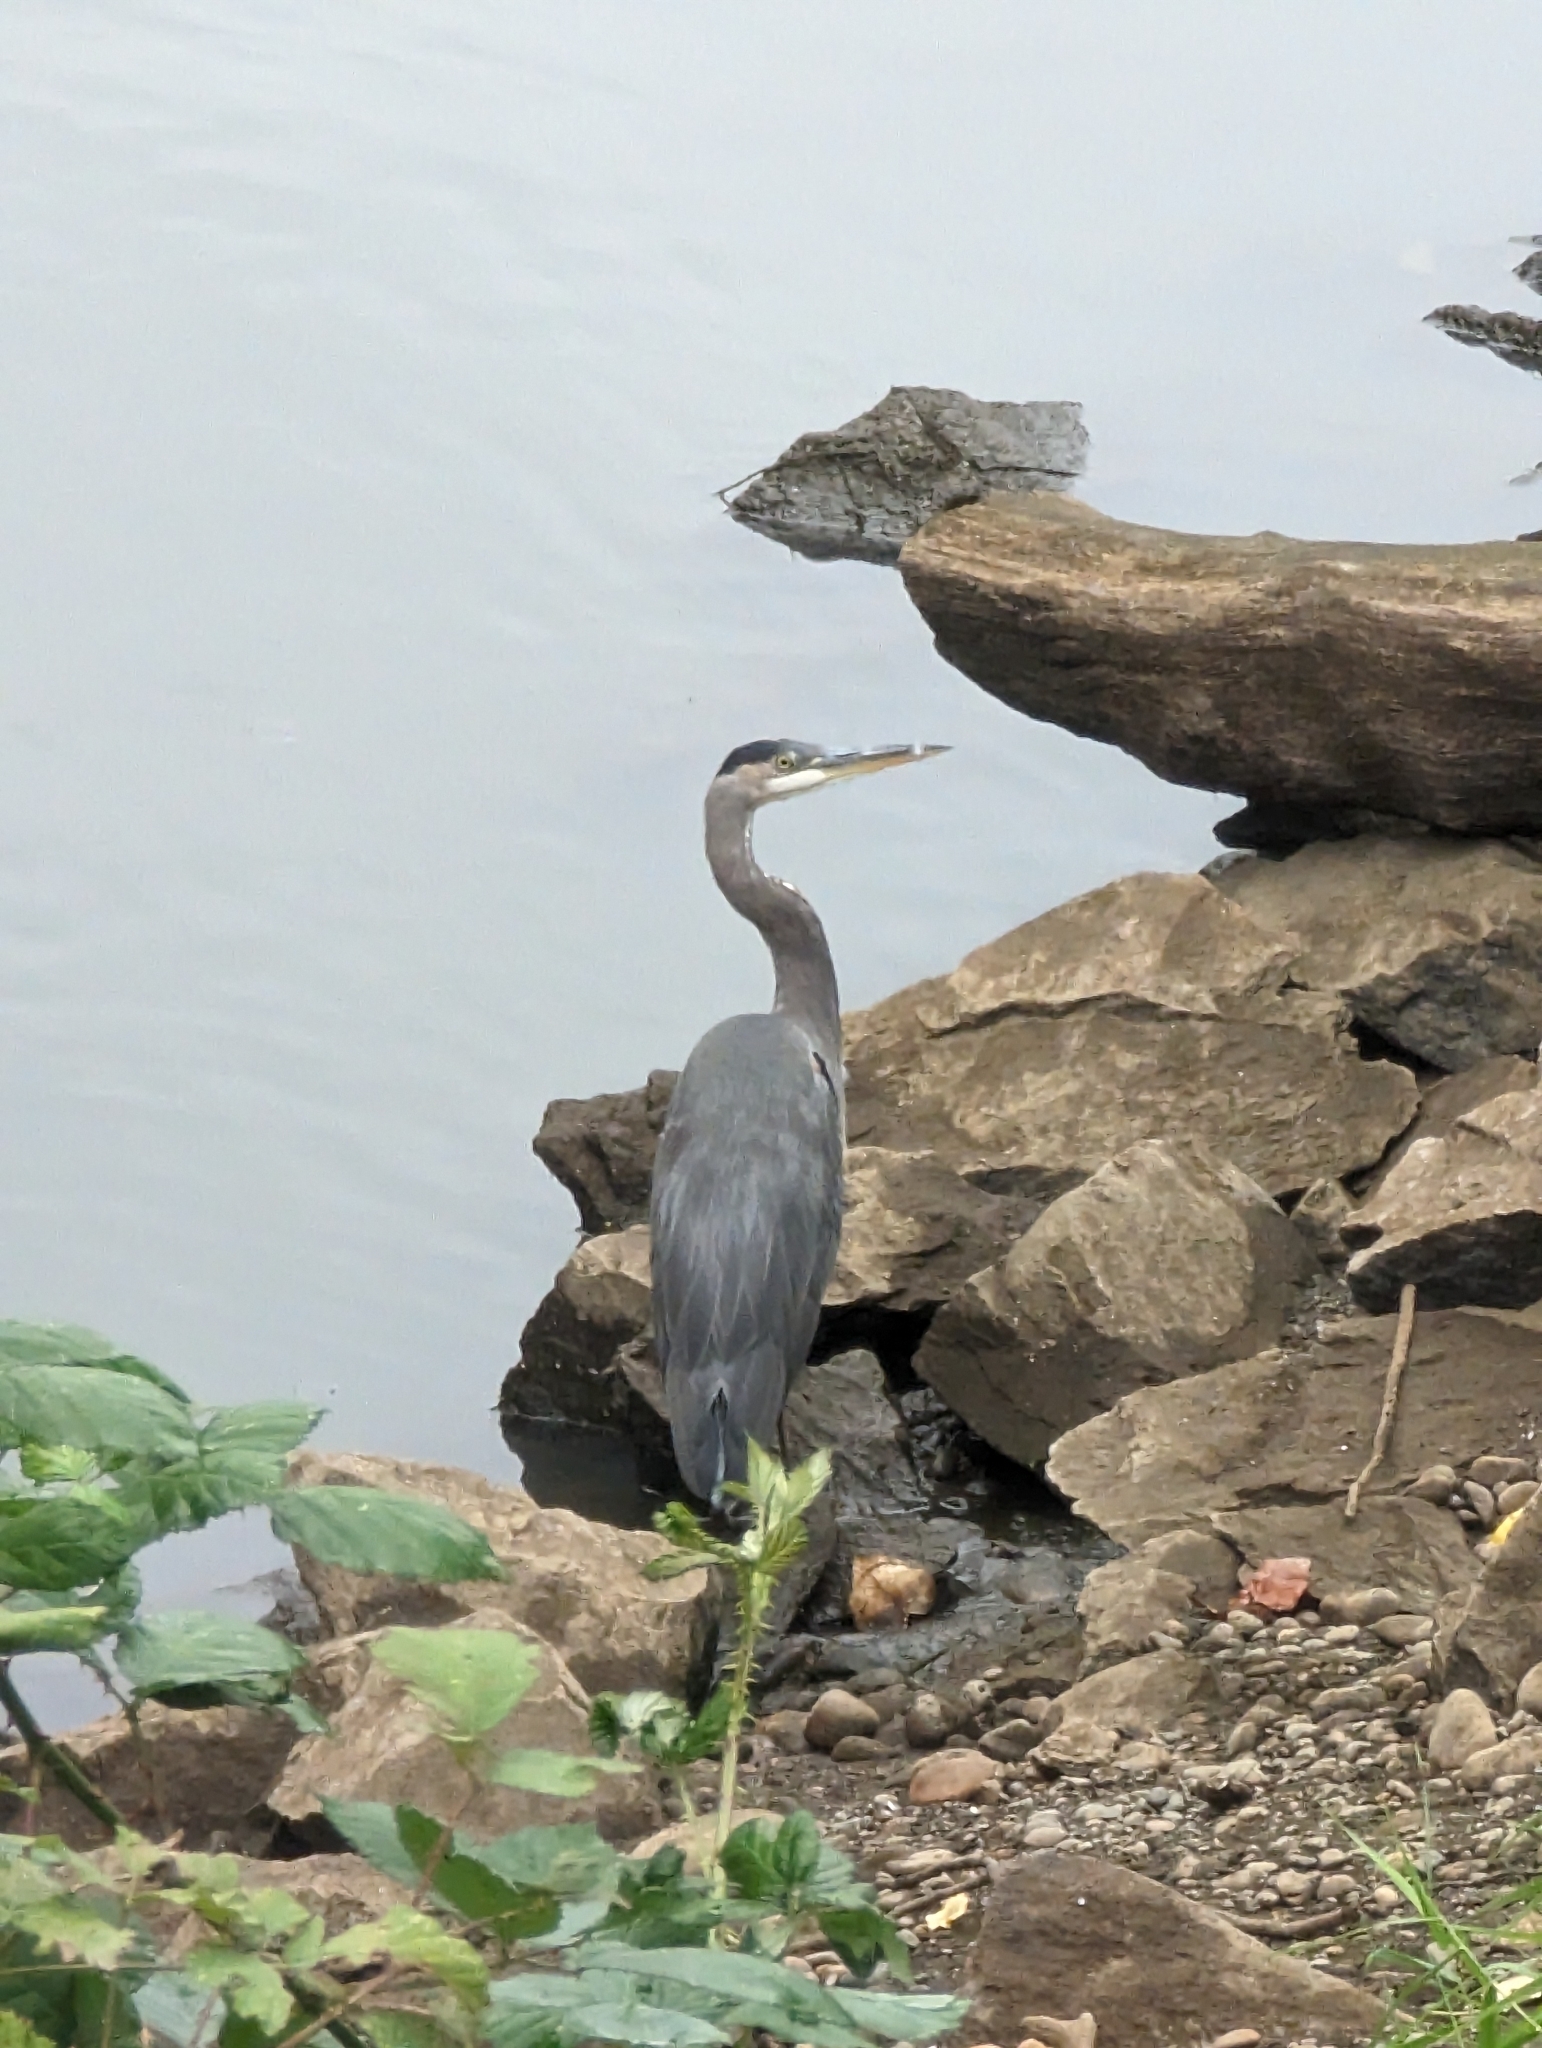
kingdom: Animalia
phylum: Chordata
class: Aves
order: Pelecaniformes
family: Ardeidae
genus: Ardea
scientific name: Ardea herodias
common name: Great blue heron
